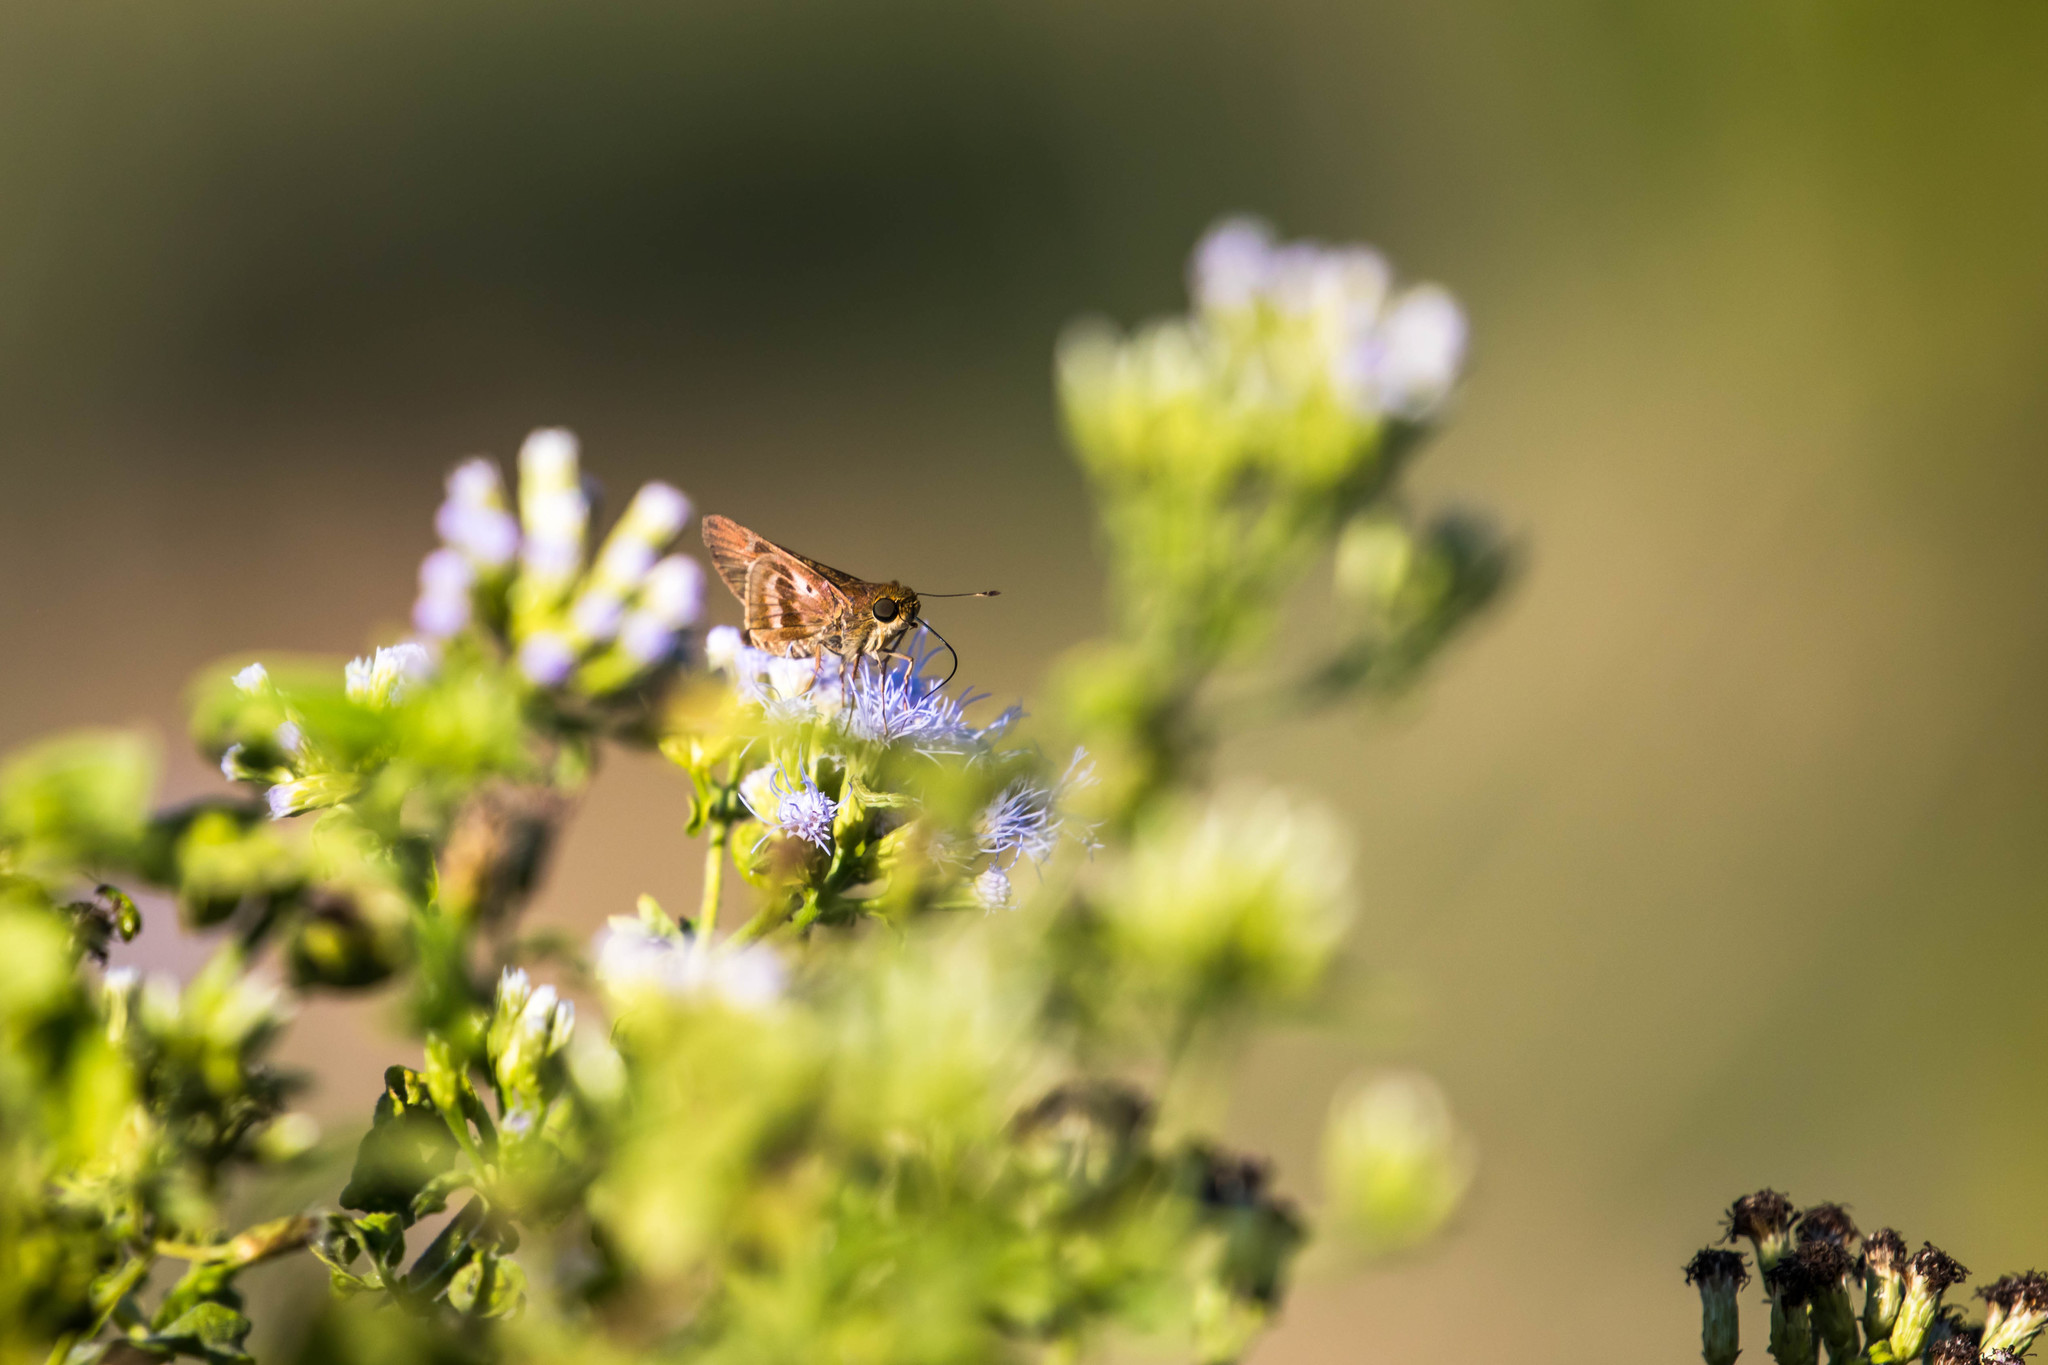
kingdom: Animalia
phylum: Arthropoda
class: Insecta
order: Lepidoptera
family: Hesperiidae
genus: Nyctelius
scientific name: Nyctelius nyctelius
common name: Violet-banded skipper
